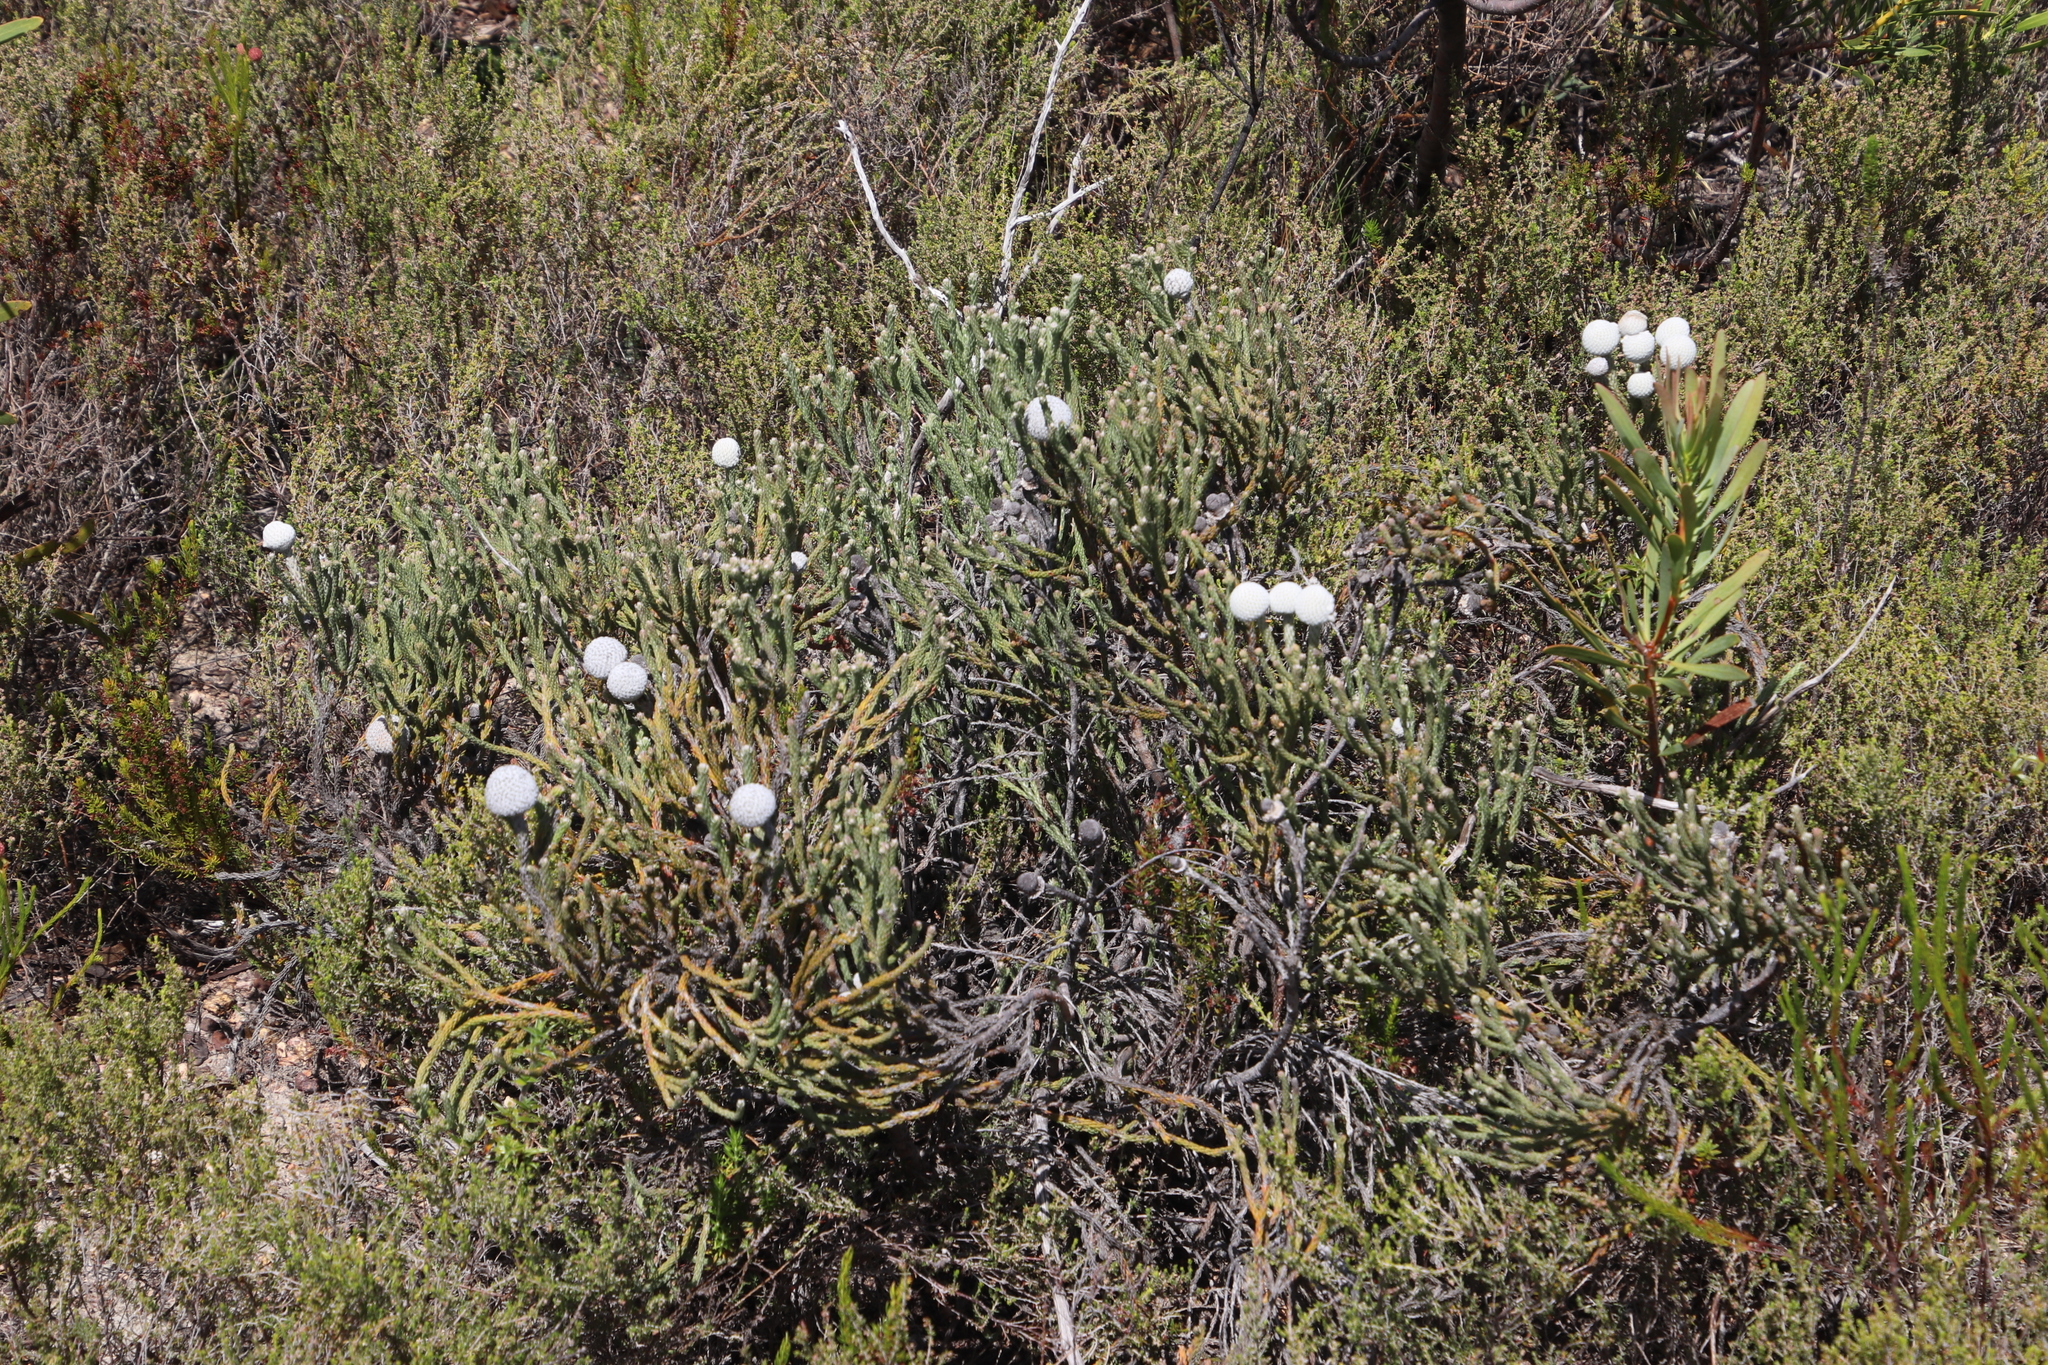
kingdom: Plantae
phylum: Tracheophyta
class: Magnoliopsida
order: Bruniales
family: Bruniaceae
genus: Brunia
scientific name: Brunia laevis
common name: Silver brunia
